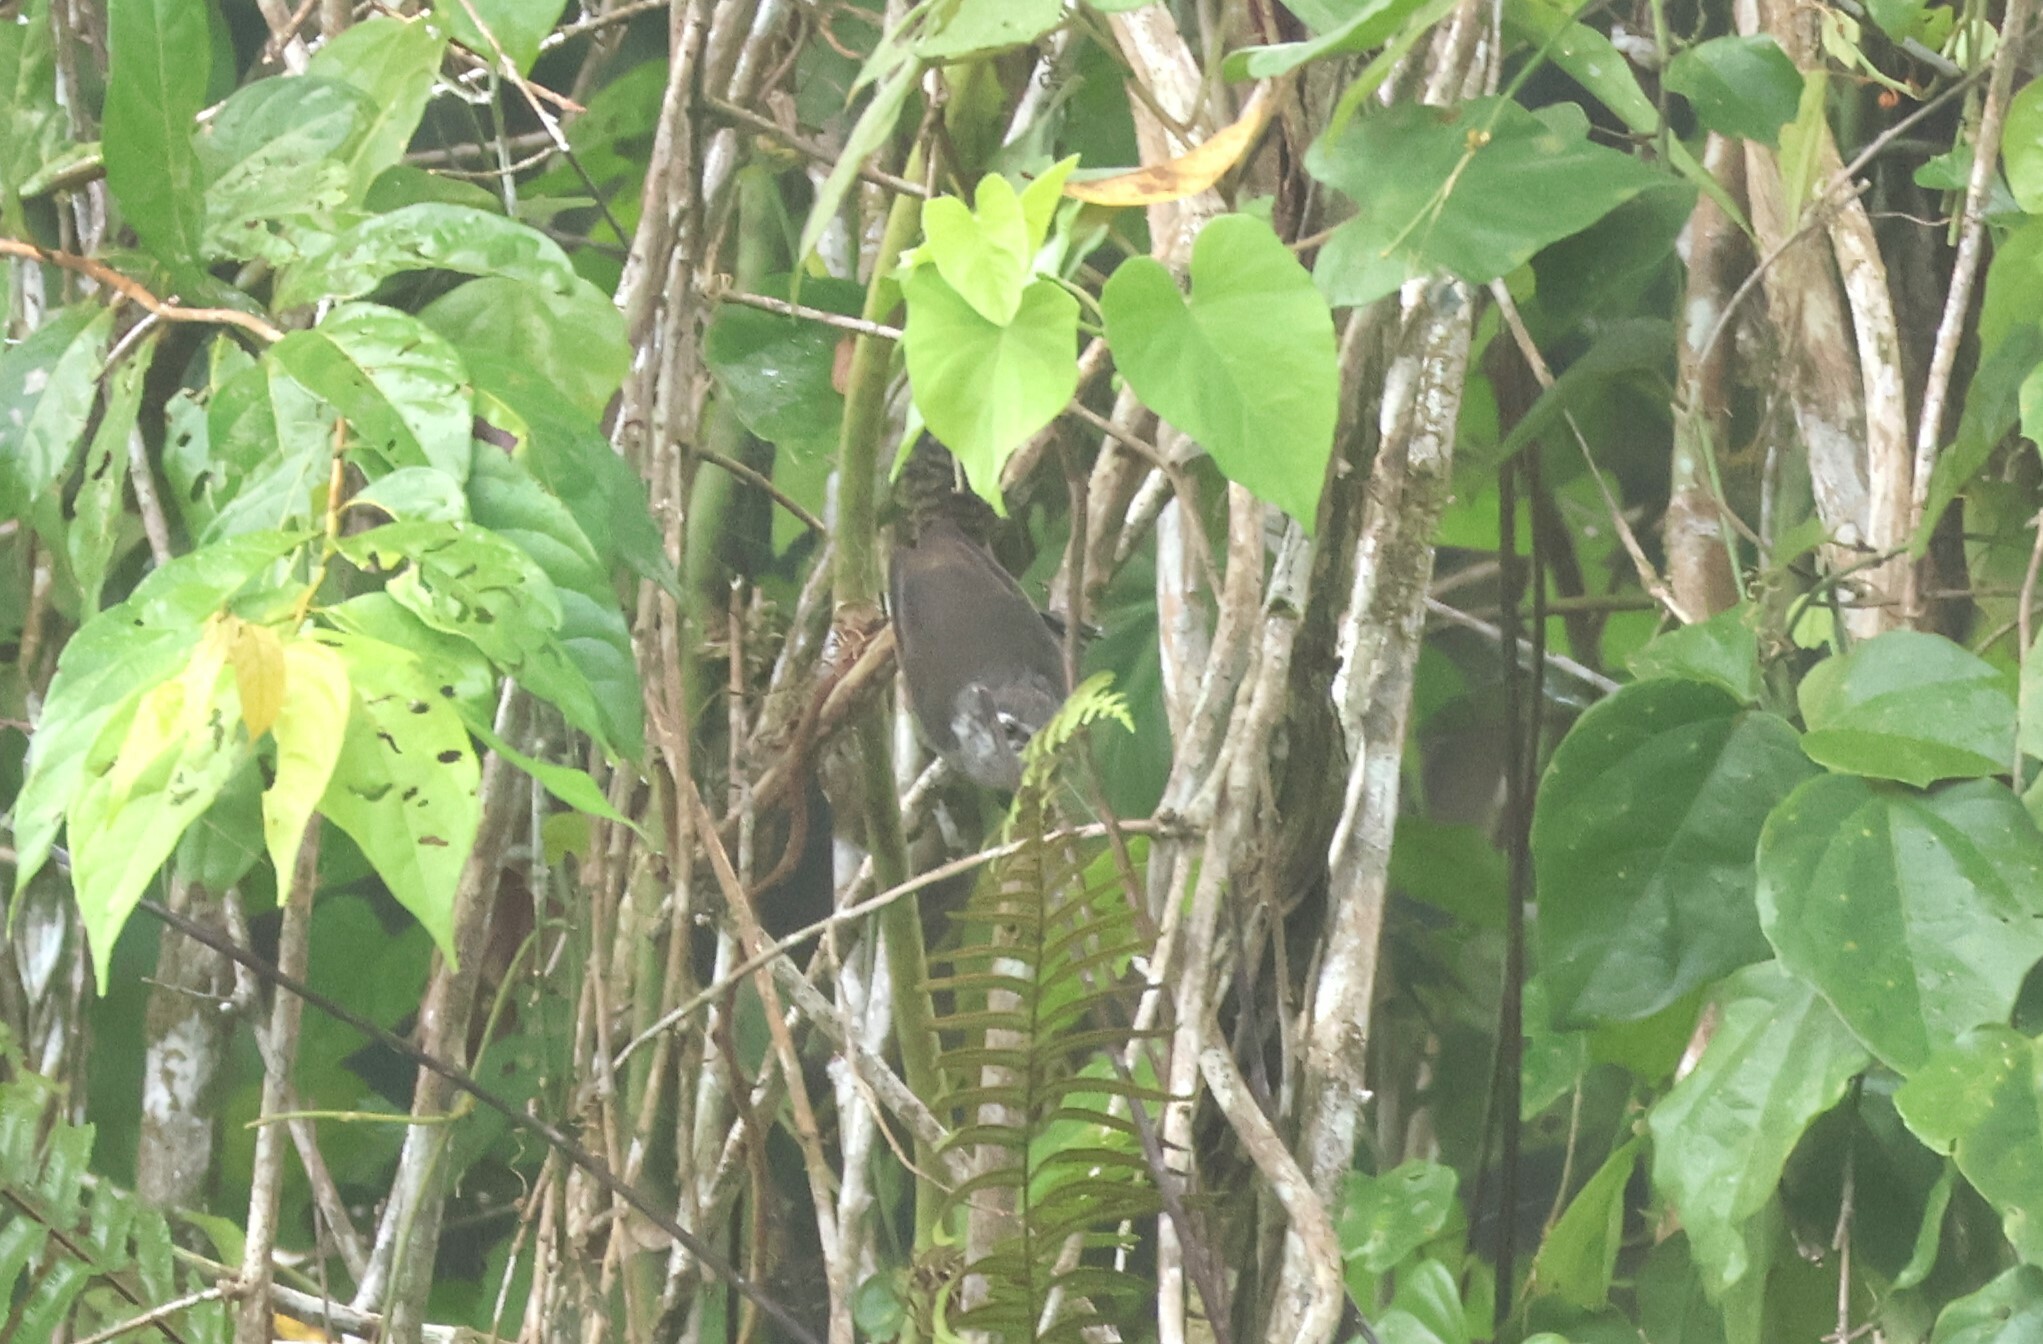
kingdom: Animalia
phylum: Chordata
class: Aves
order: Passeriformes
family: Troglodytidae
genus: Cantorchilus
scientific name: Cantorchilus modestus
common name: Cabanis's wren
